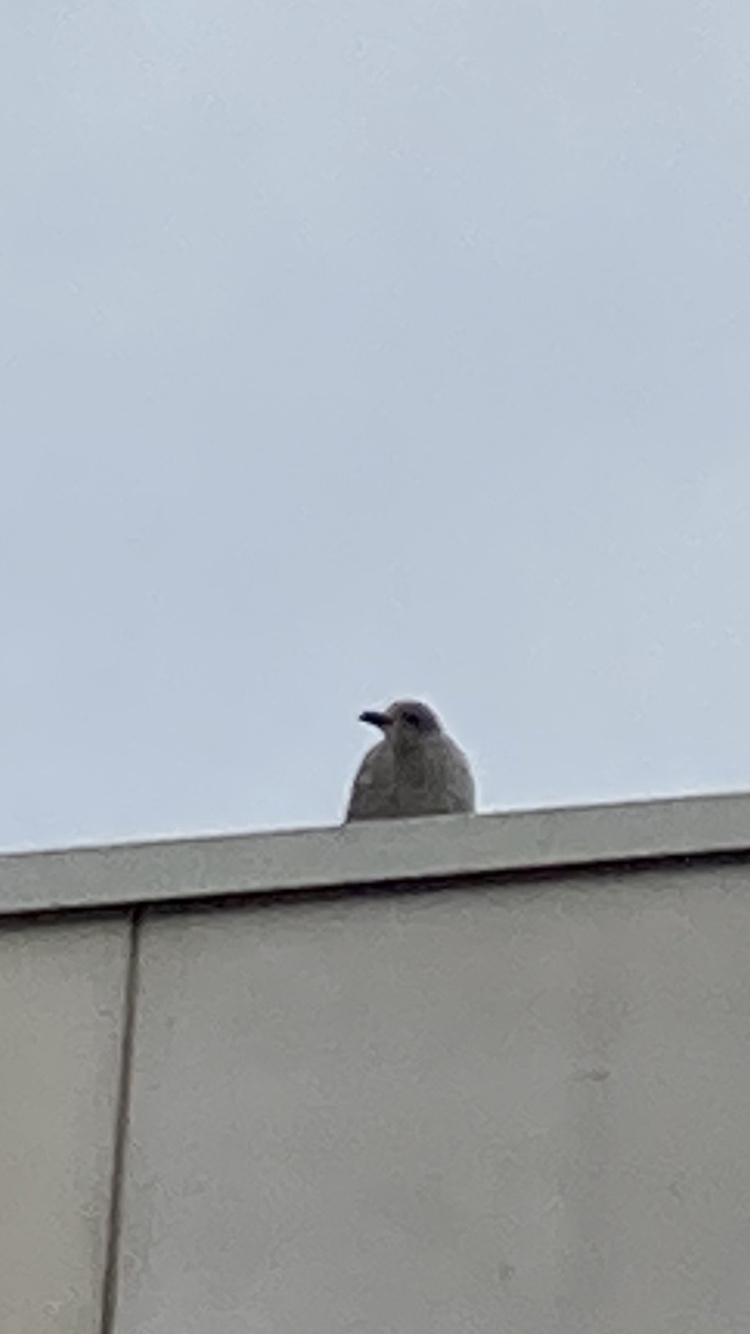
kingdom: Animalia
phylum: Chordata
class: Aves
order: Charadriiformes
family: Laridae
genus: Larus
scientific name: Larus argentatus
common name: Herring gull
